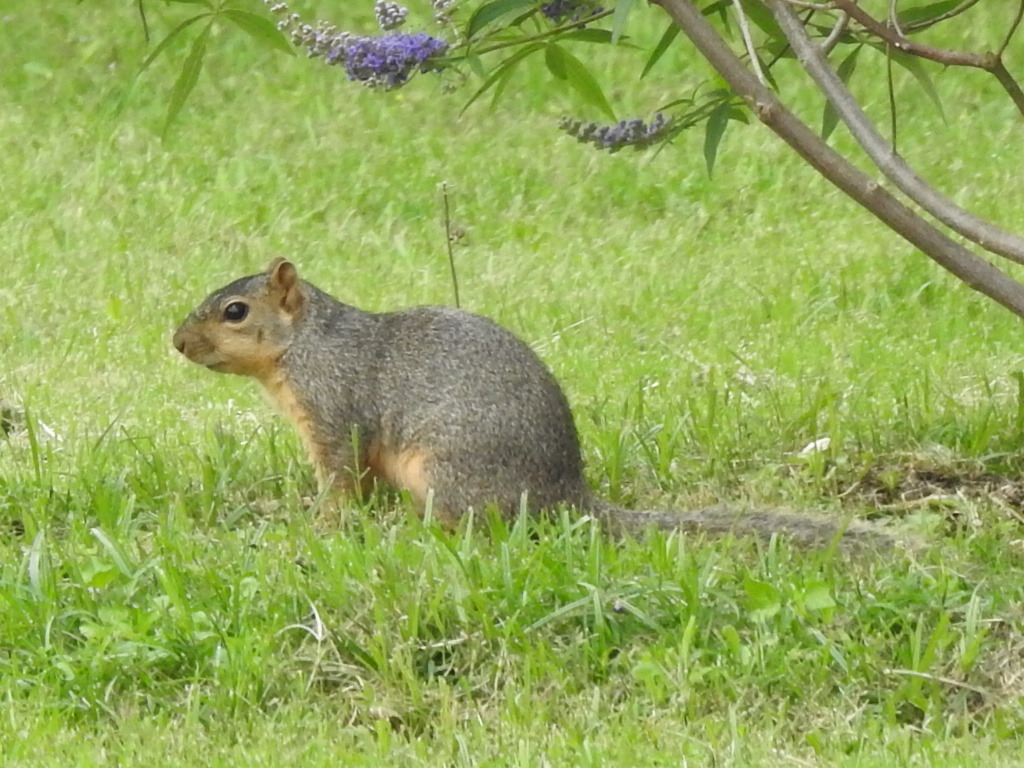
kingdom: Animalia
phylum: Chordata
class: Mammalia
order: Rodentia
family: Sciuridae
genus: Sciurus
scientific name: Sciurus niger
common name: Fox squirrel
